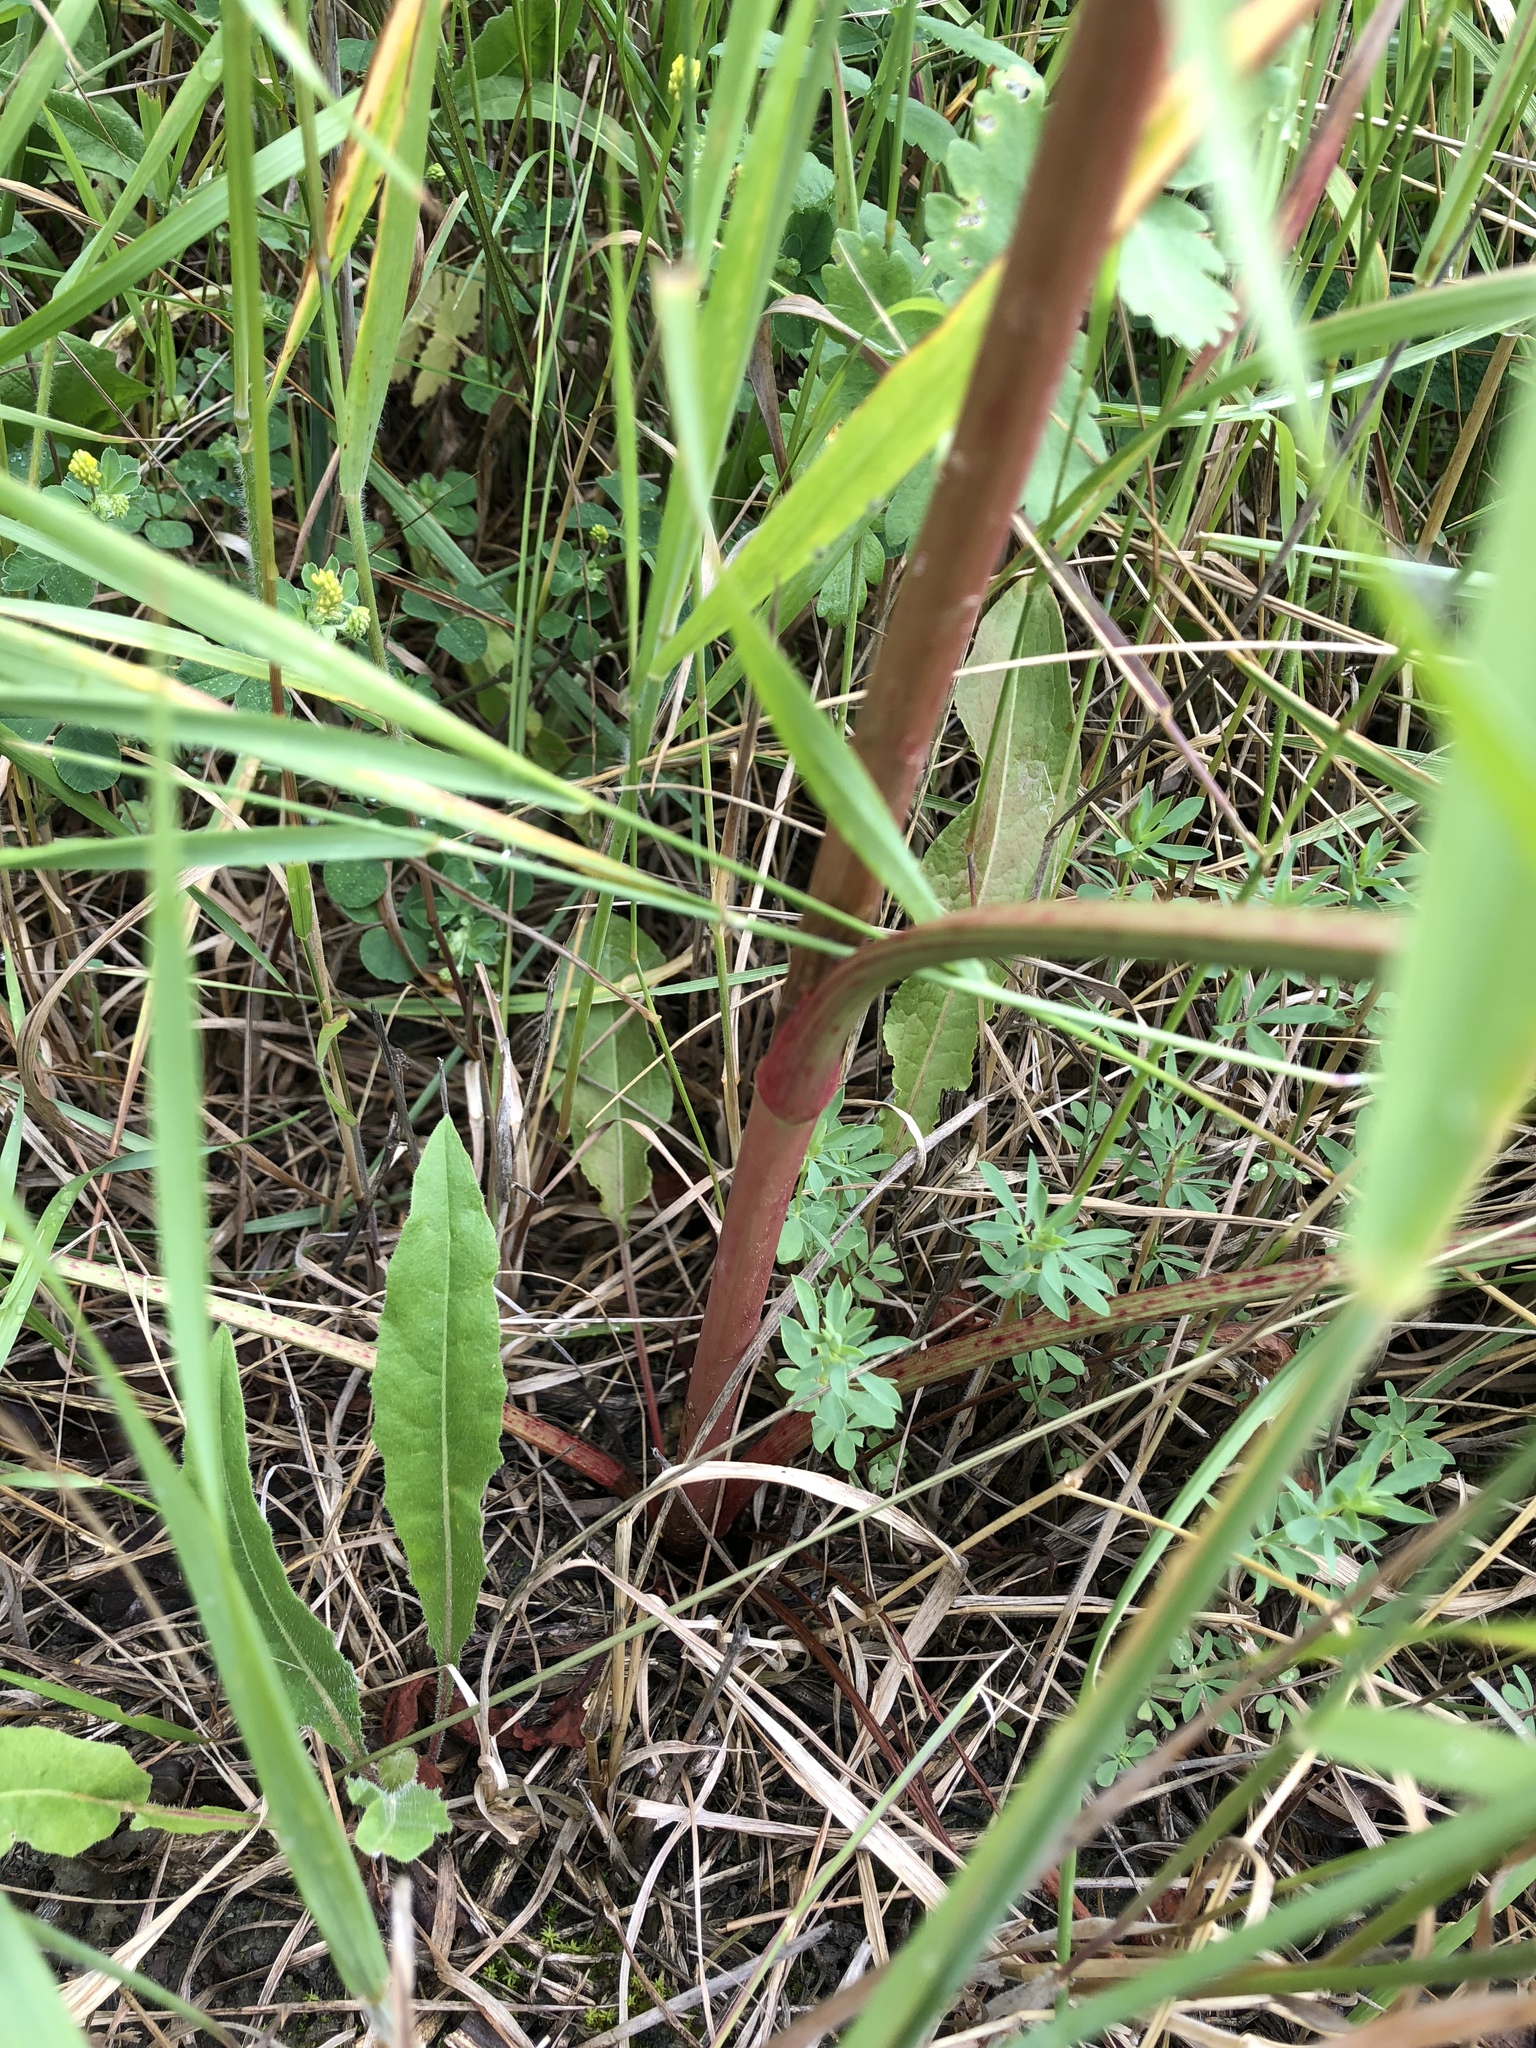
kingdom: Plantae
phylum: Tracheophyta
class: Magnoliopsida
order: Caryophyllales
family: Polygonaceae
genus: Rumex
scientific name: Rumex crispus
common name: Curled dock
